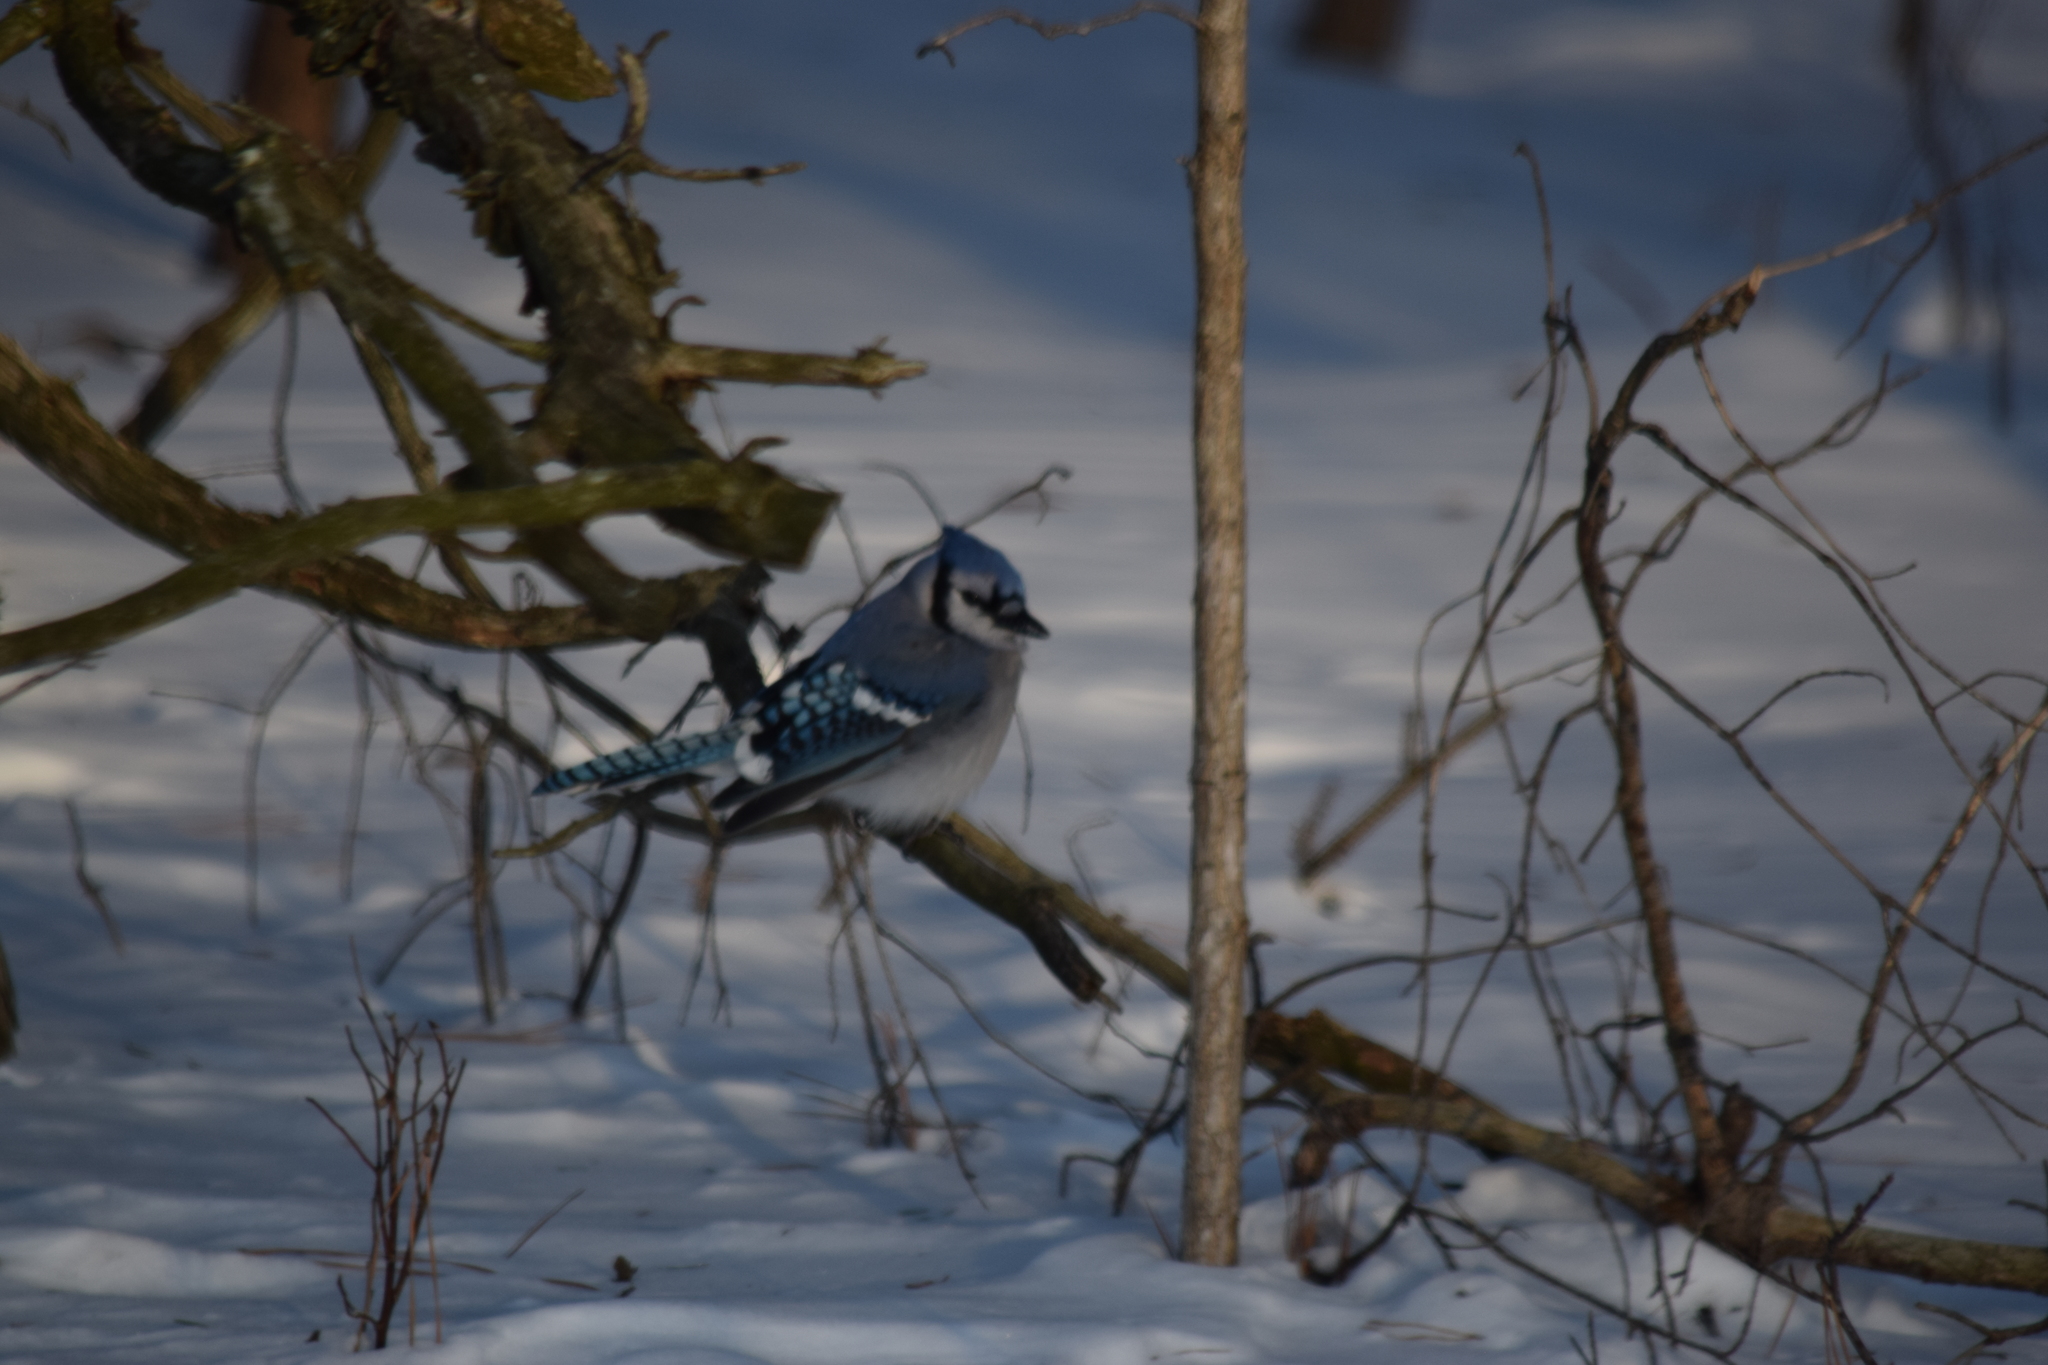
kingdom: Animalia
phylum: Chordata
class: Aves
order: Passeriformes
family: Corvidae
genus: Cyanocitta
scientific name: Cyanocitta cristata
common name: Blue jay
